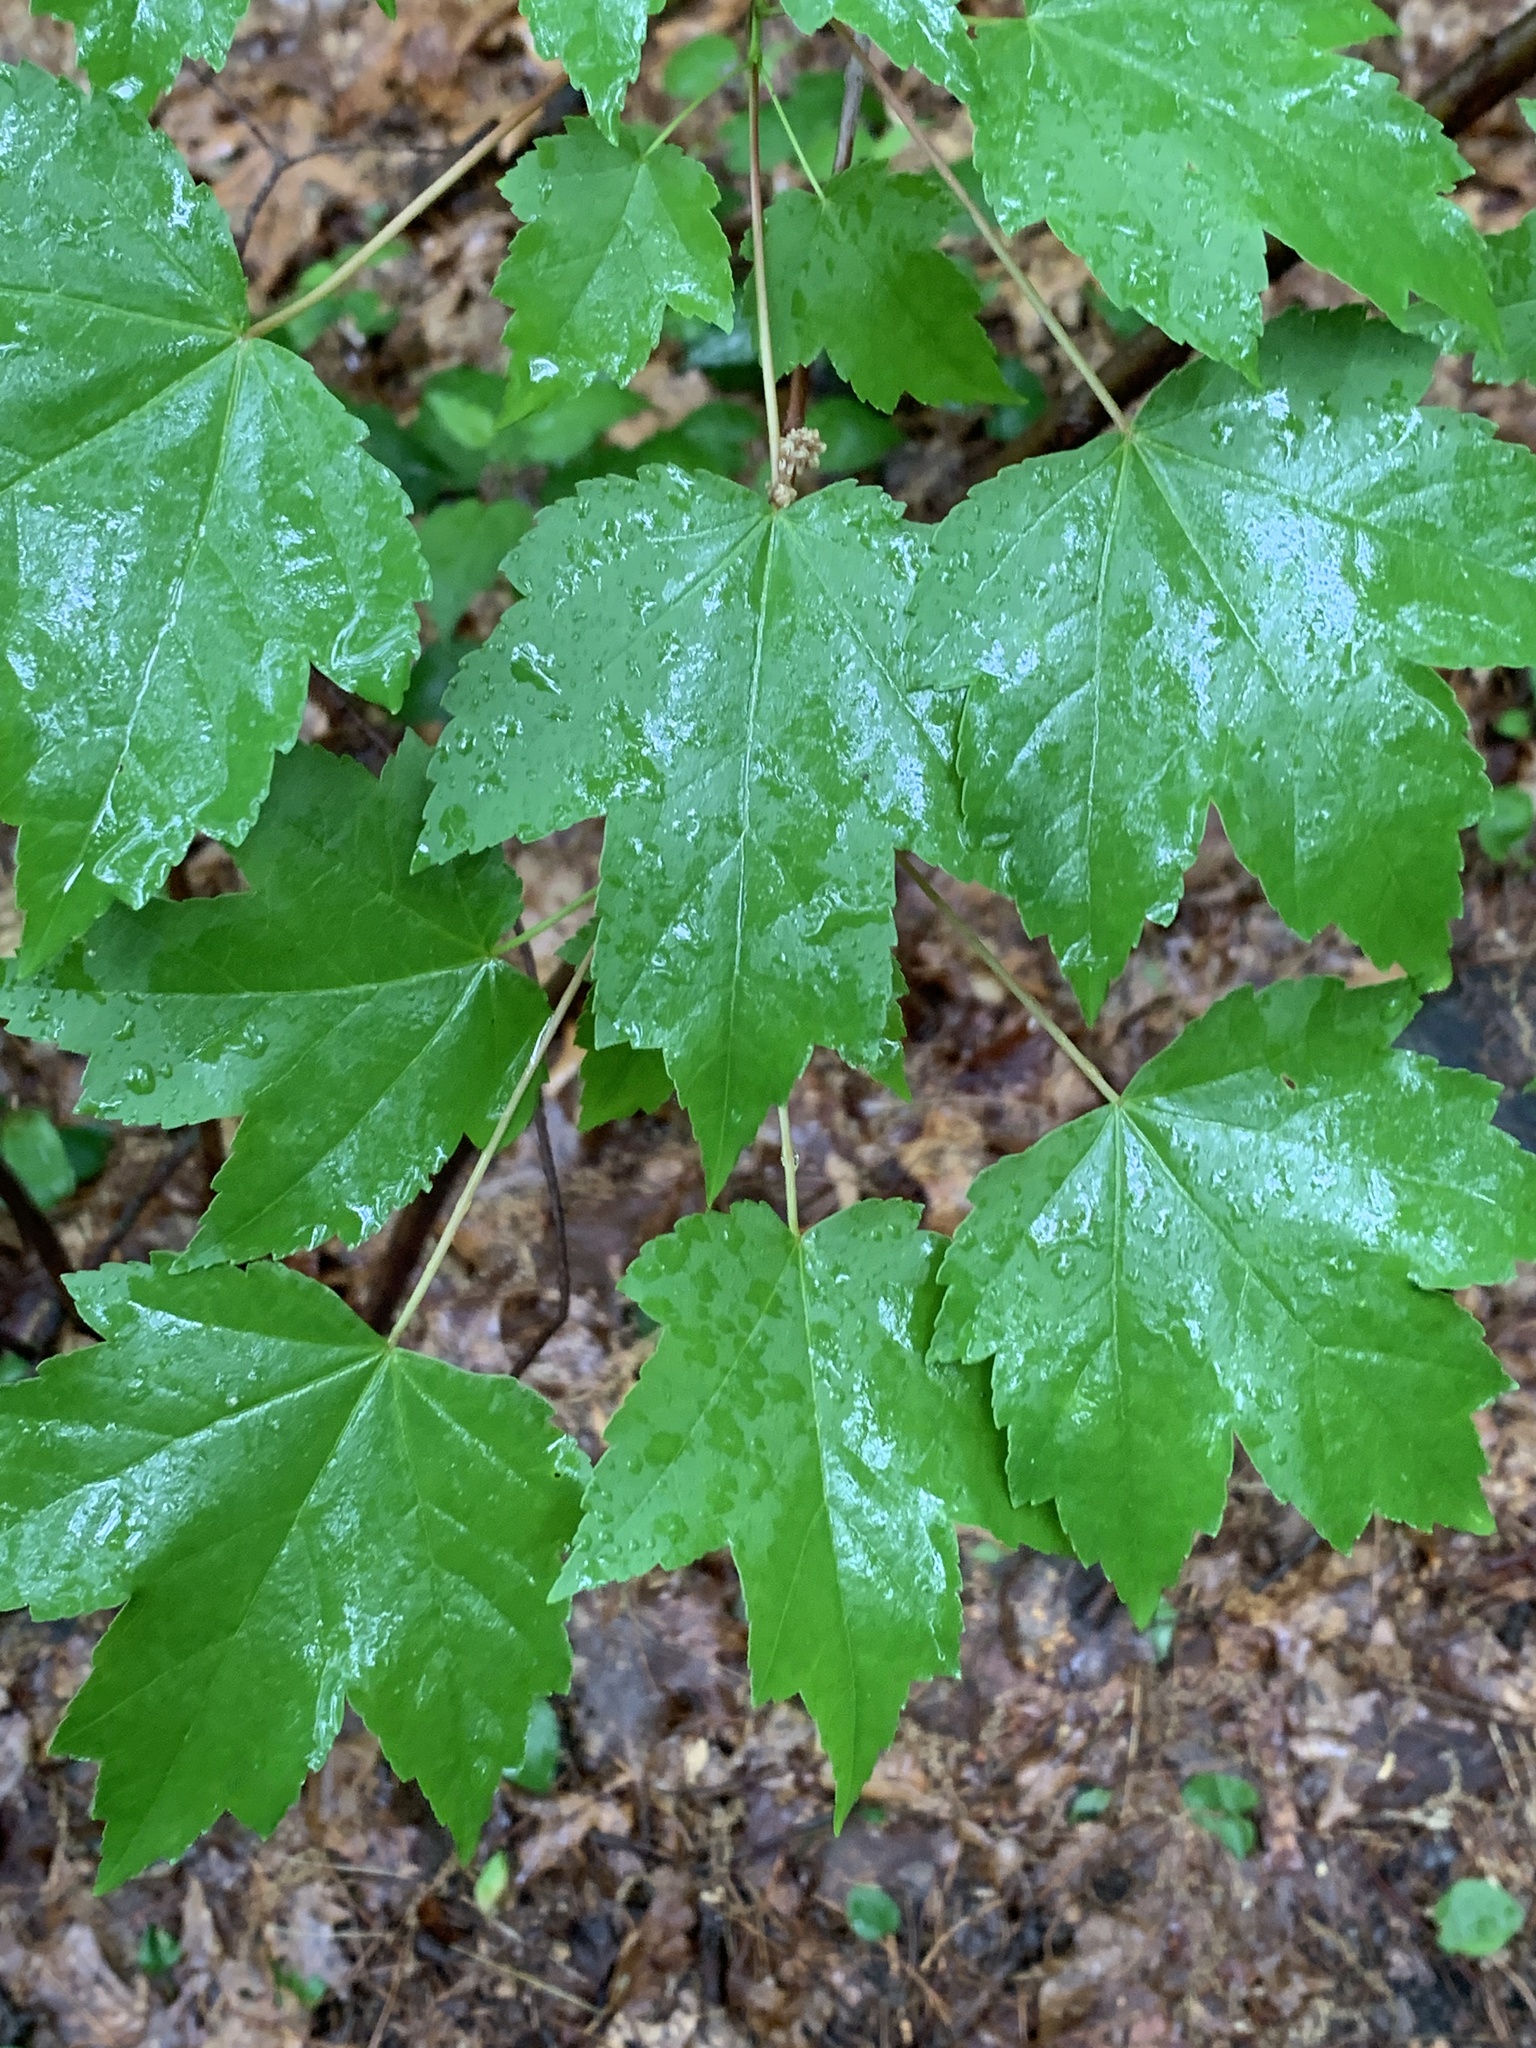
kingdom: Plantae
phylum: Tracheophyta
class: Magnoliopsida
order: Sapindales
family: Sapindaceae
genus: Acer
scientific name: Acer rubrum
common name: Red maple
